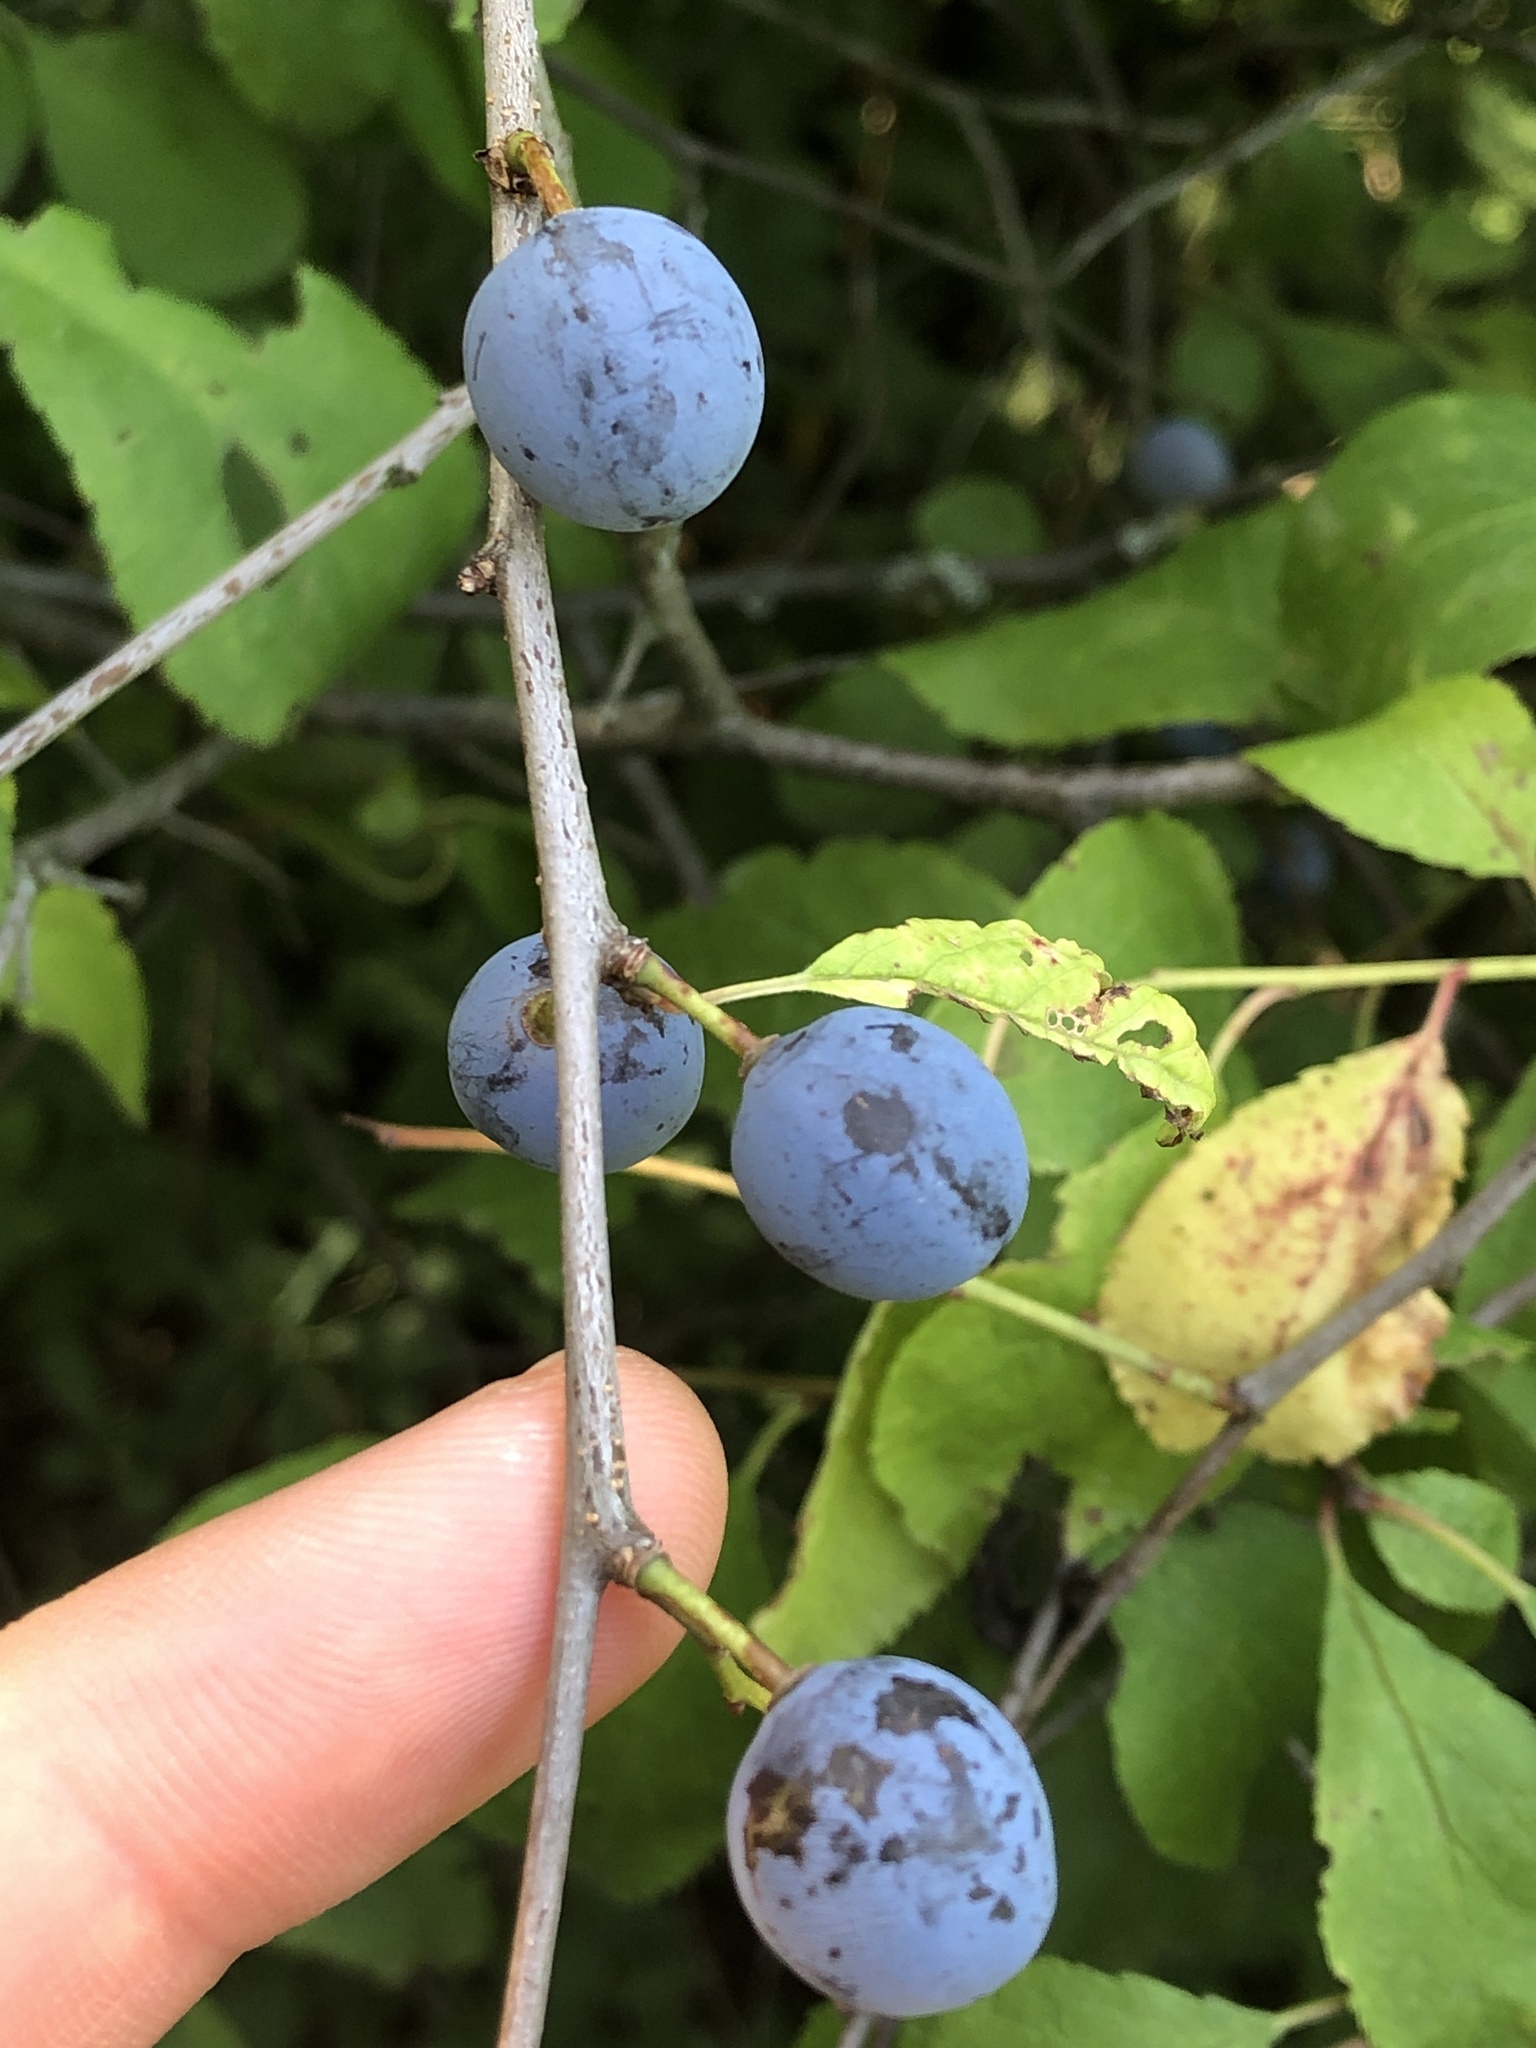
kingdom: Plantae
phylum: Tracheophyta
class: Magnoliopsida
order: Rosales
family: Rosaceae
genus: Prunus
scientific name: Prunus spinosa
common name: Blackthorn
